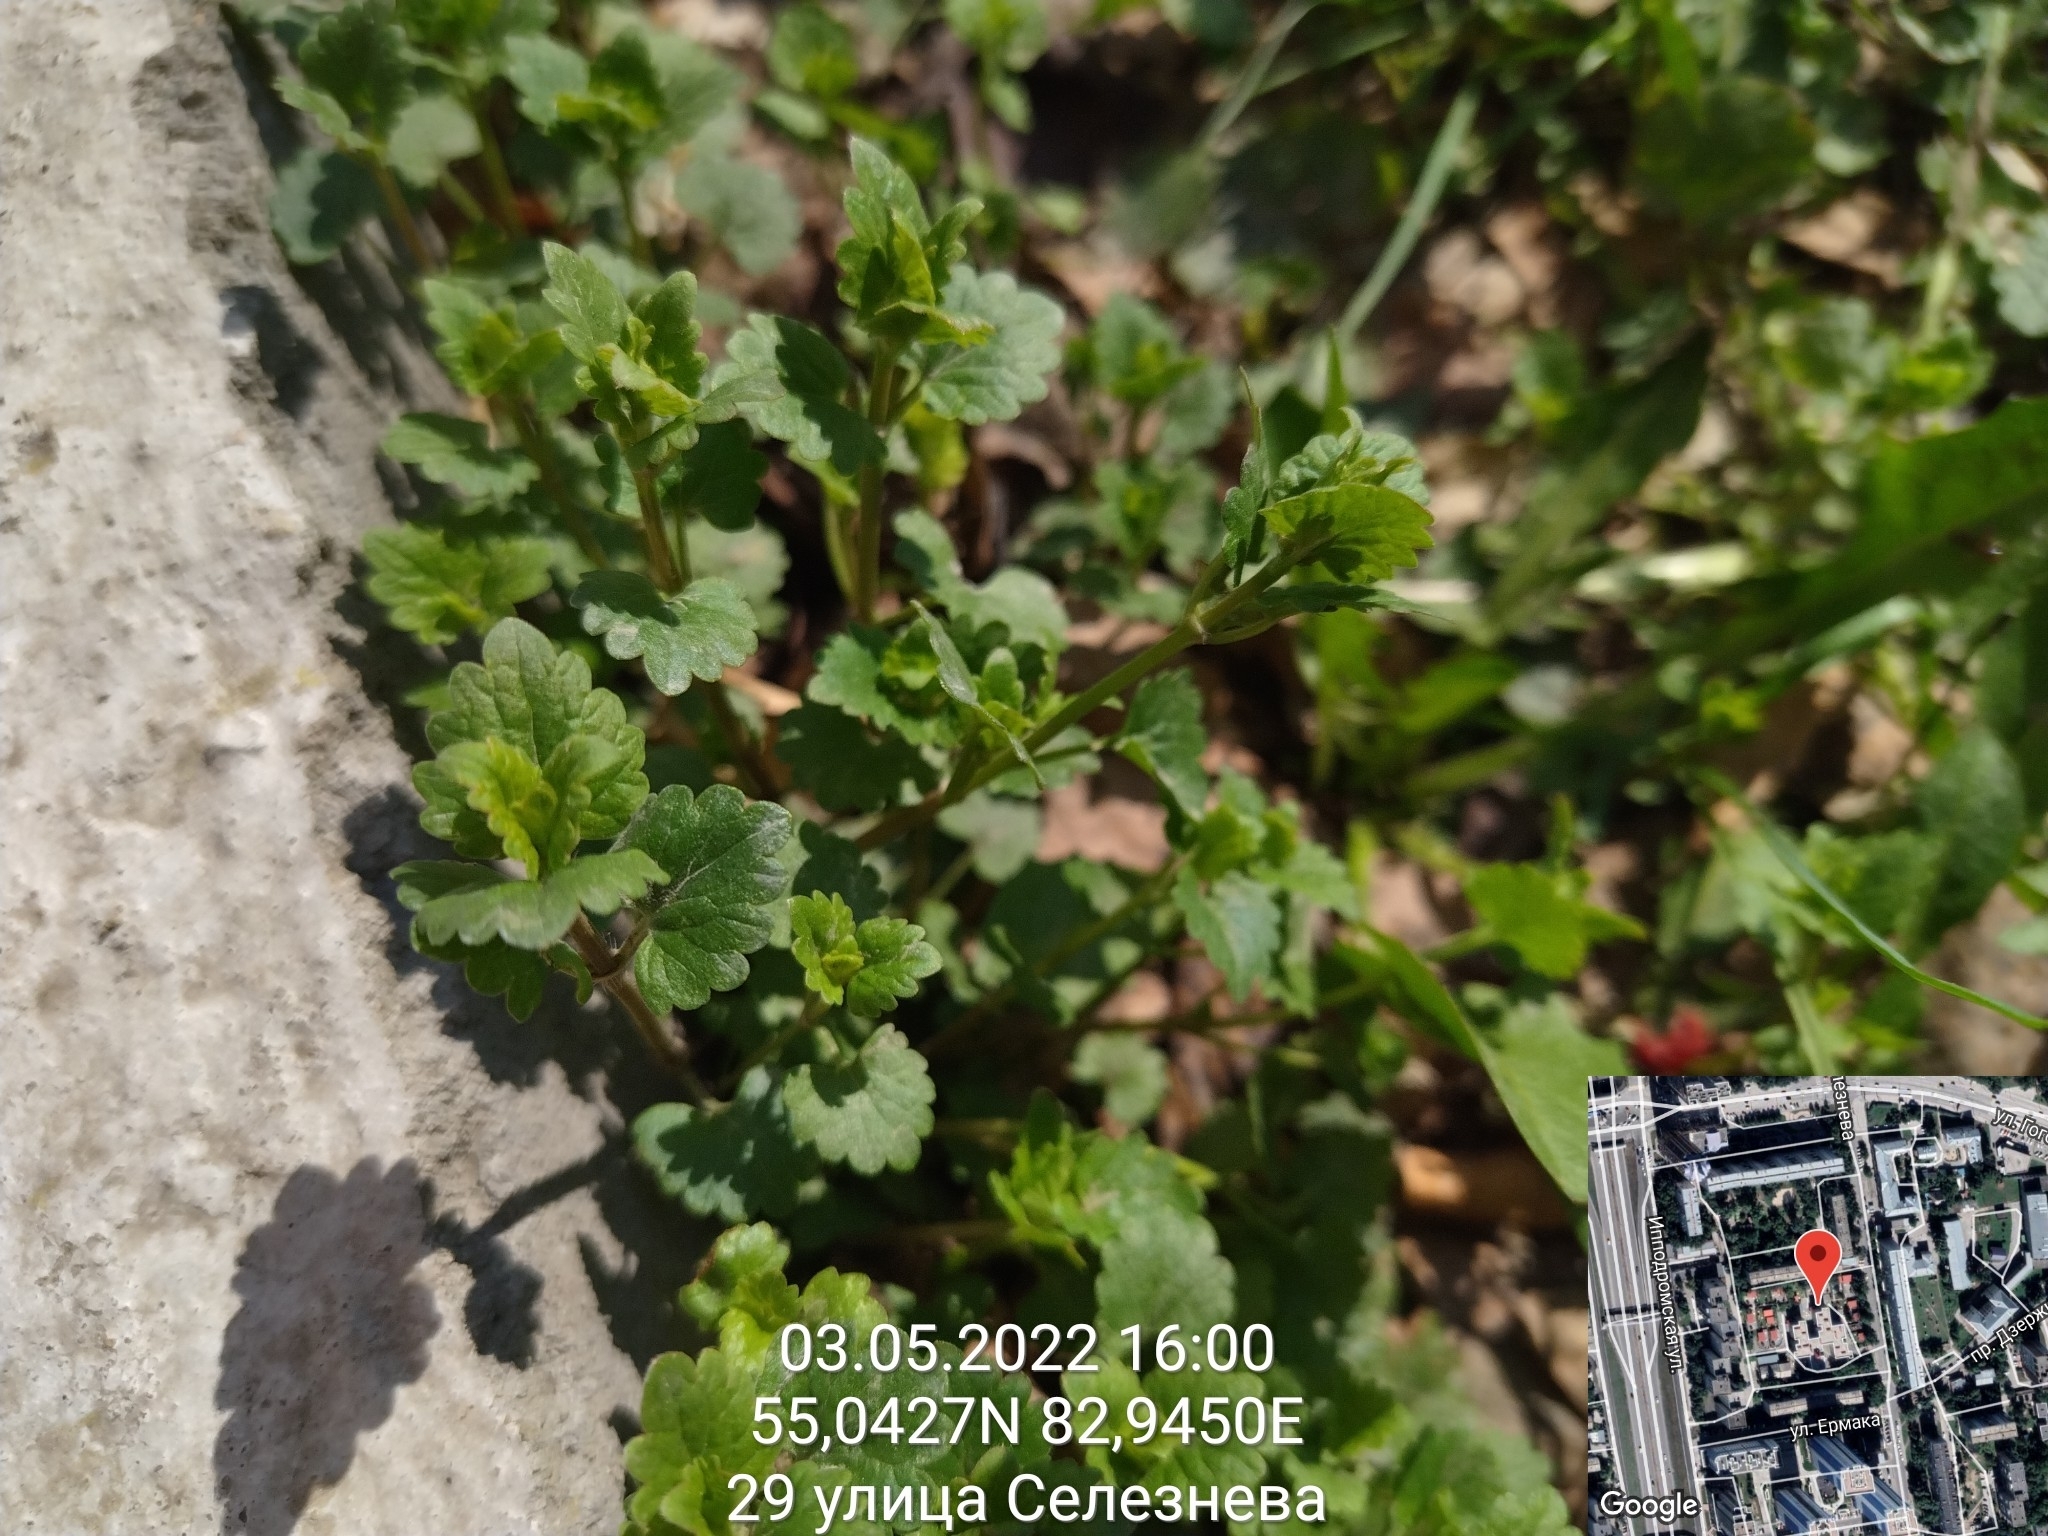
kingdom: Plantae
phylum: Tracheophyta
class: Magnoliopsida
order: Lamiales
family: Lamiaceae
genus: Glechoma
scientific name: Glechoma hederacea
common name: Ground ivy
